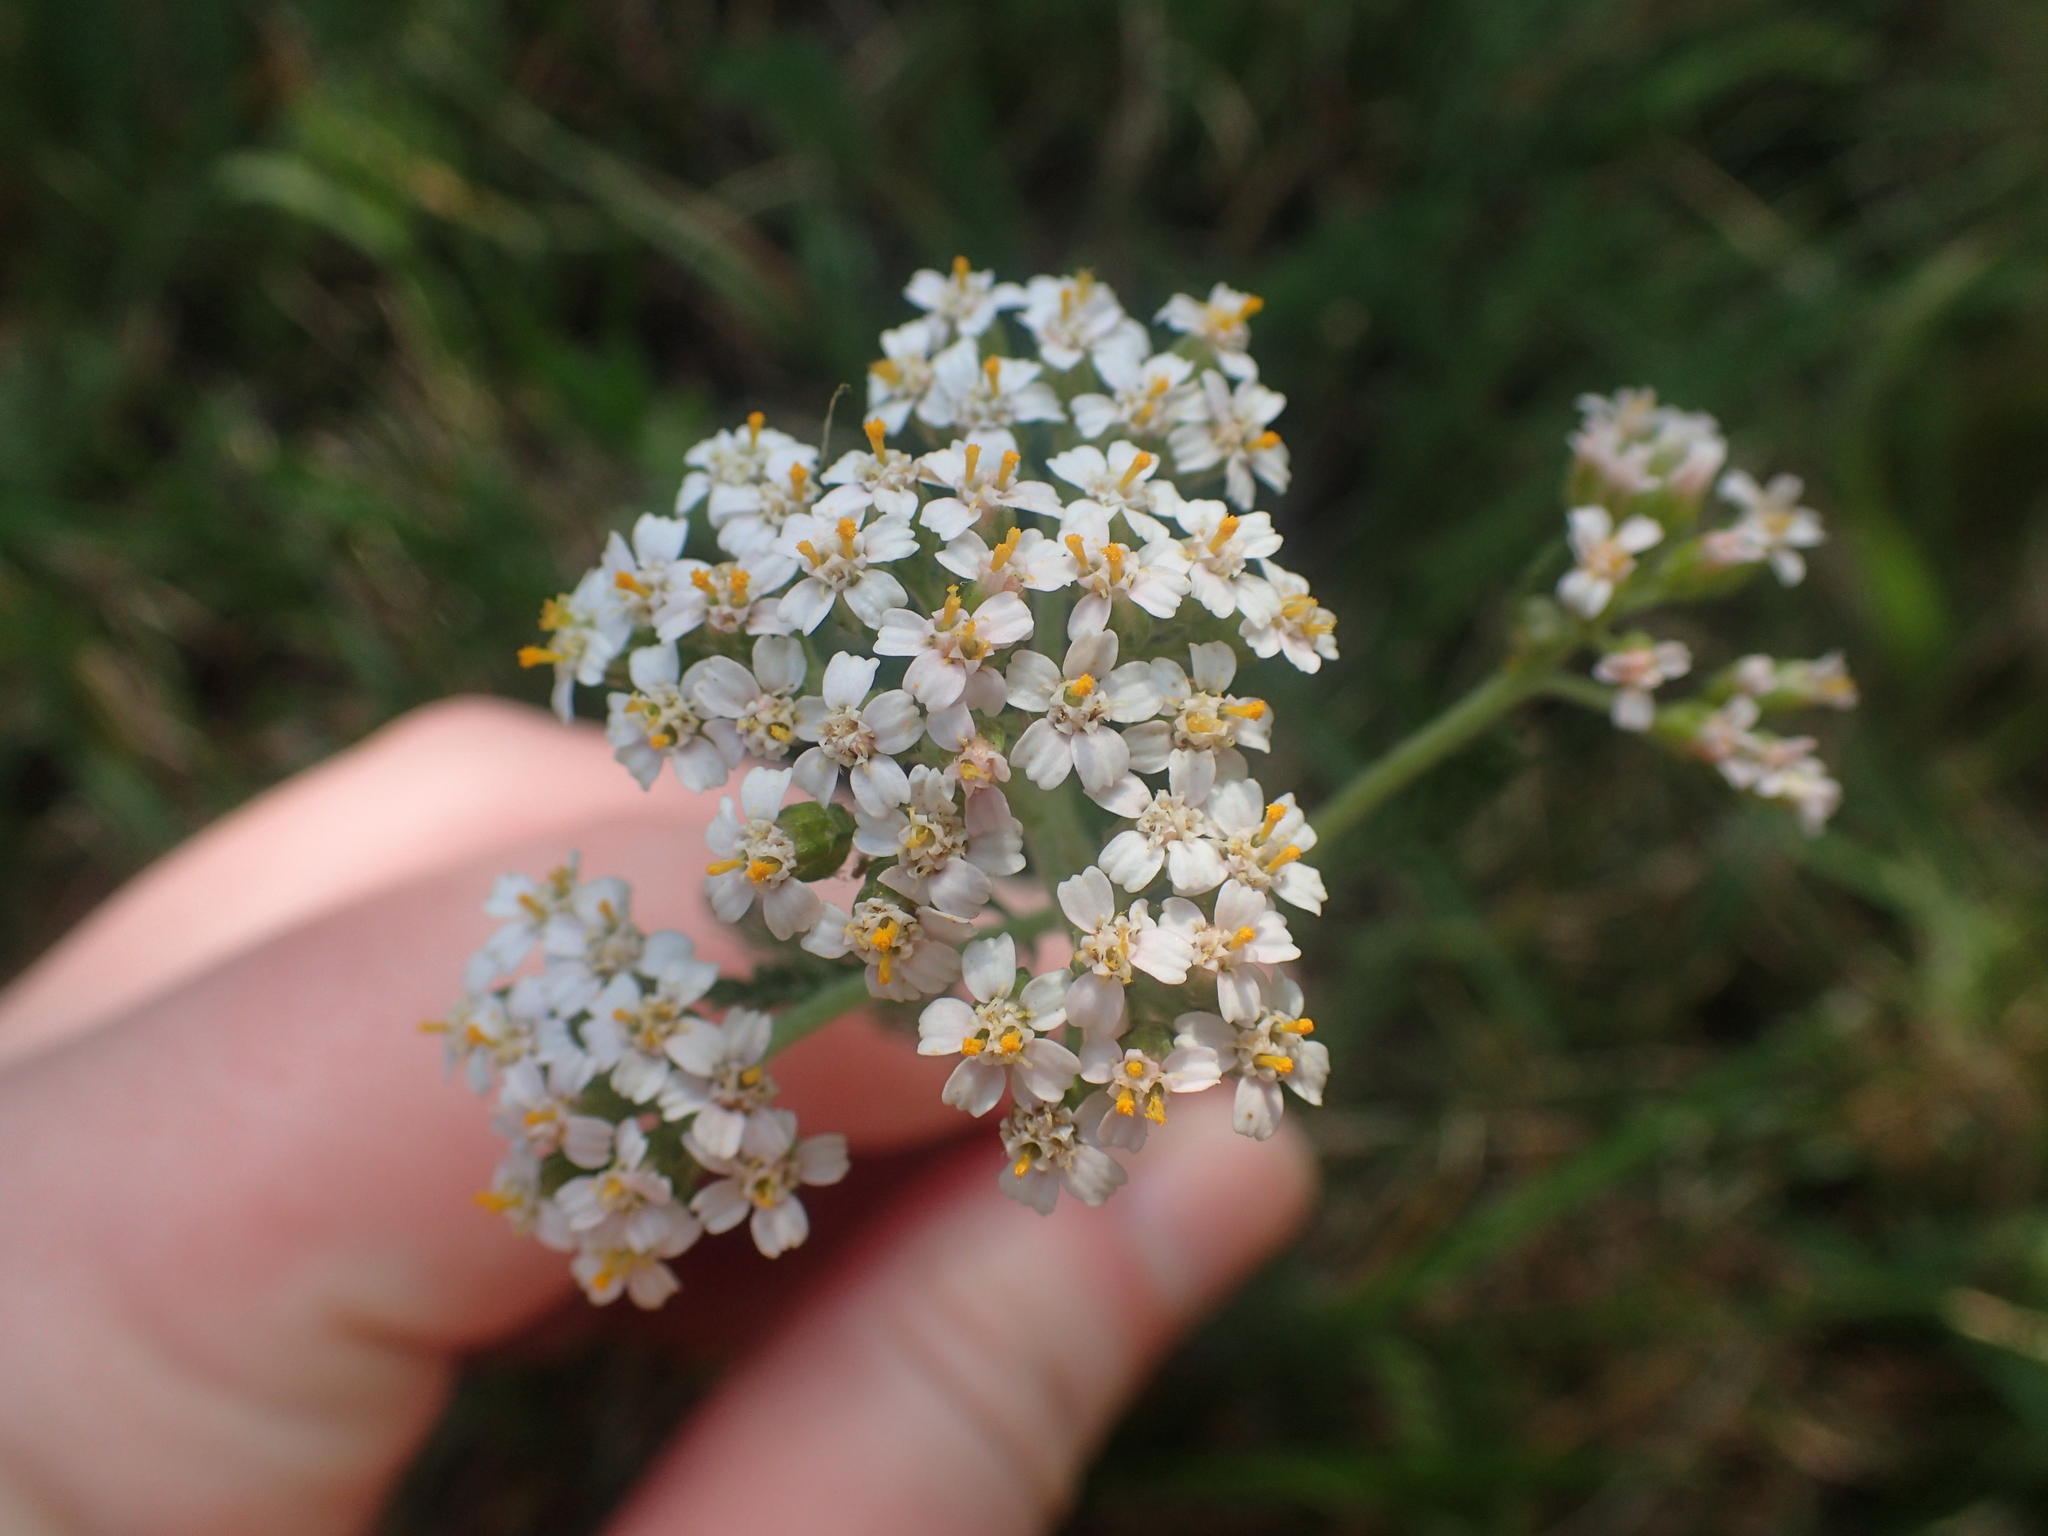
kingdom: Plantae
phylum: Tracheophyta
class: Magnoliopsida
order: Asterales
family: Asteraceae
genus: Achillea
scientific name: Achillea millefolium
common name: Yarrow
